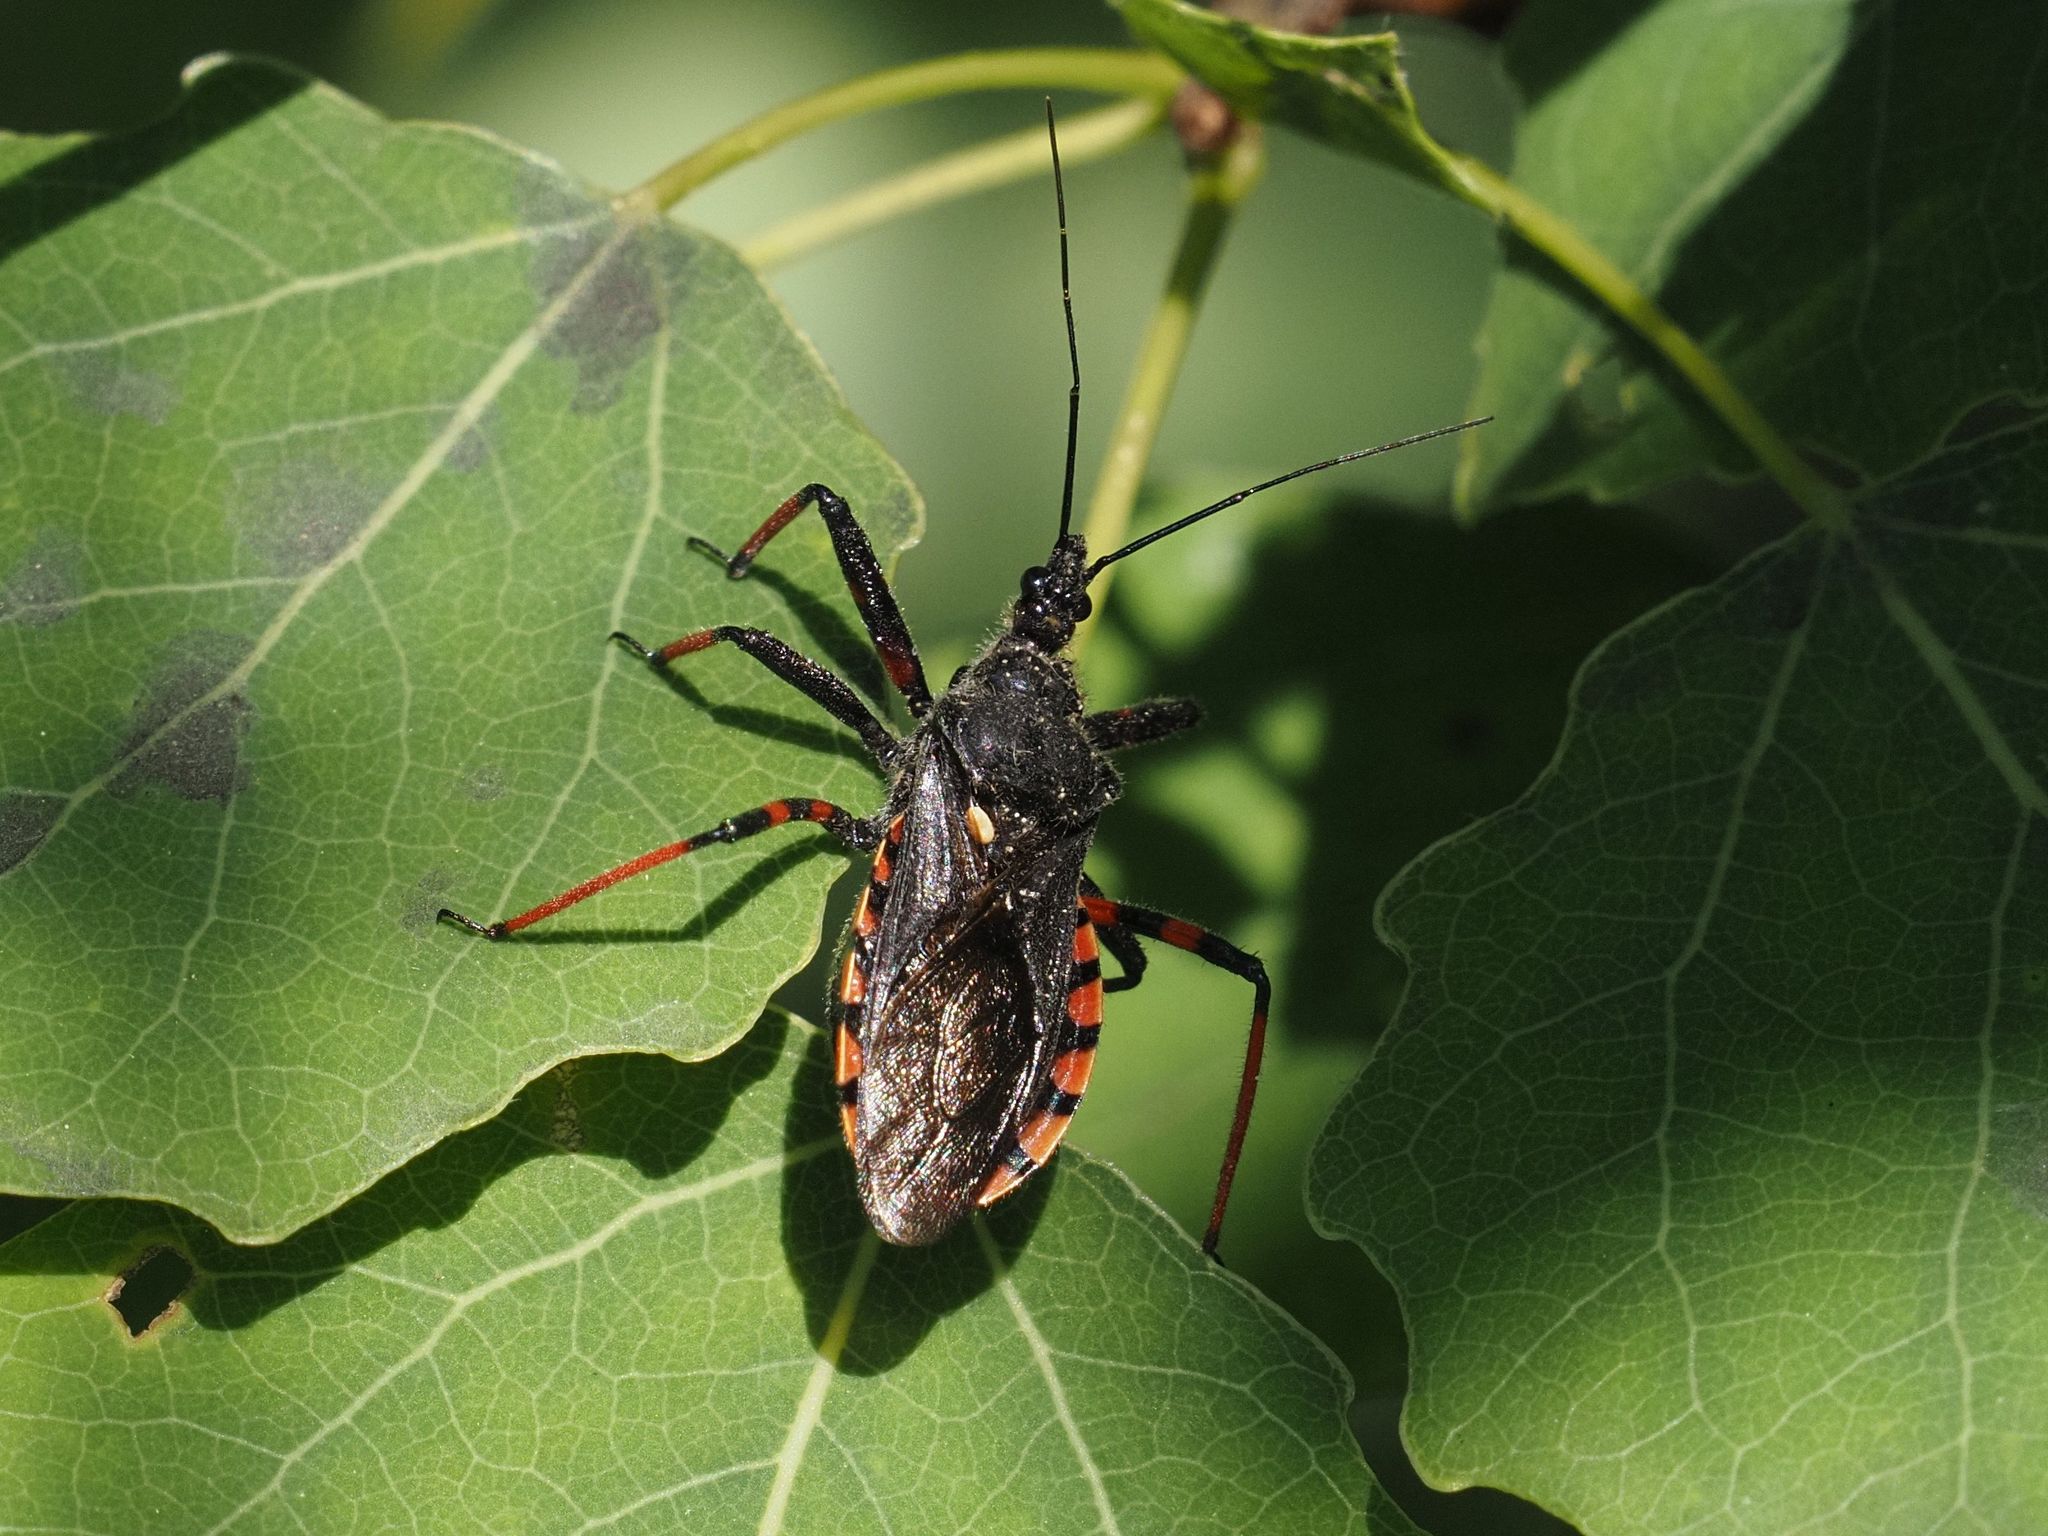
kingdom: Animalia
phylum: Arthropoda
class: Insecta
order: Hemiptera
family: Reduviidae
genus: Rhynocoris
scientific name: Rhynocoris annulatus
